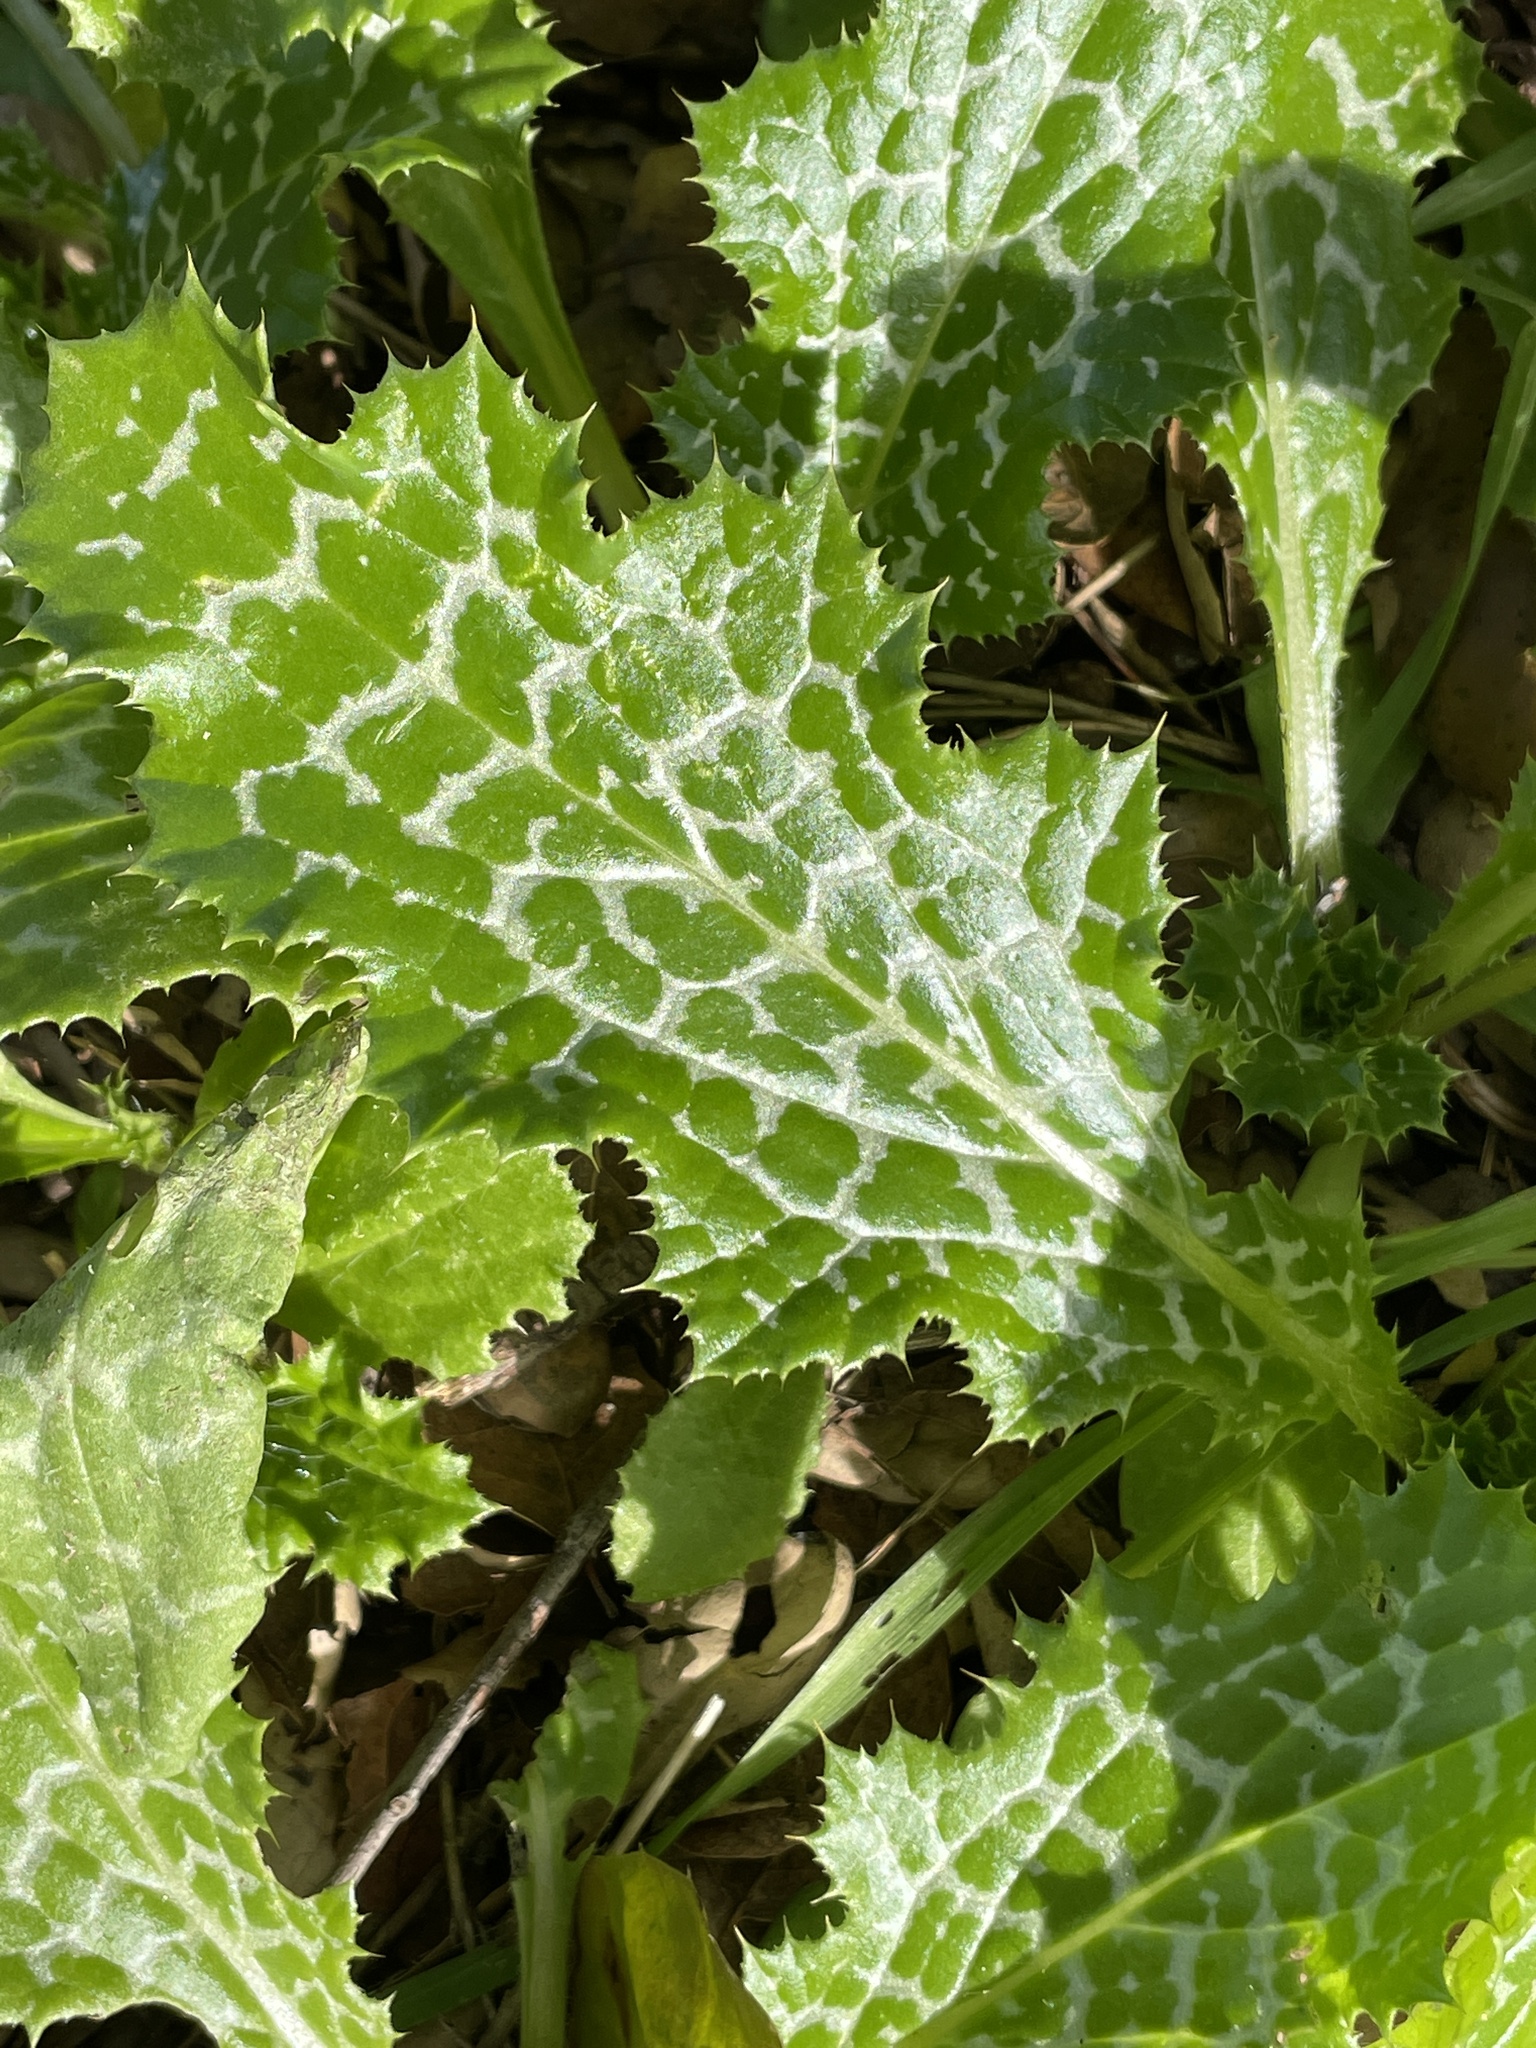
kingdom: Plantae
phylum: Tracheophyta
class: Magnoliopsida
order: Asterales
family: Asteraceae
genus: Silybum
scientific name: Silybum marianum
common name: Milk thistle
